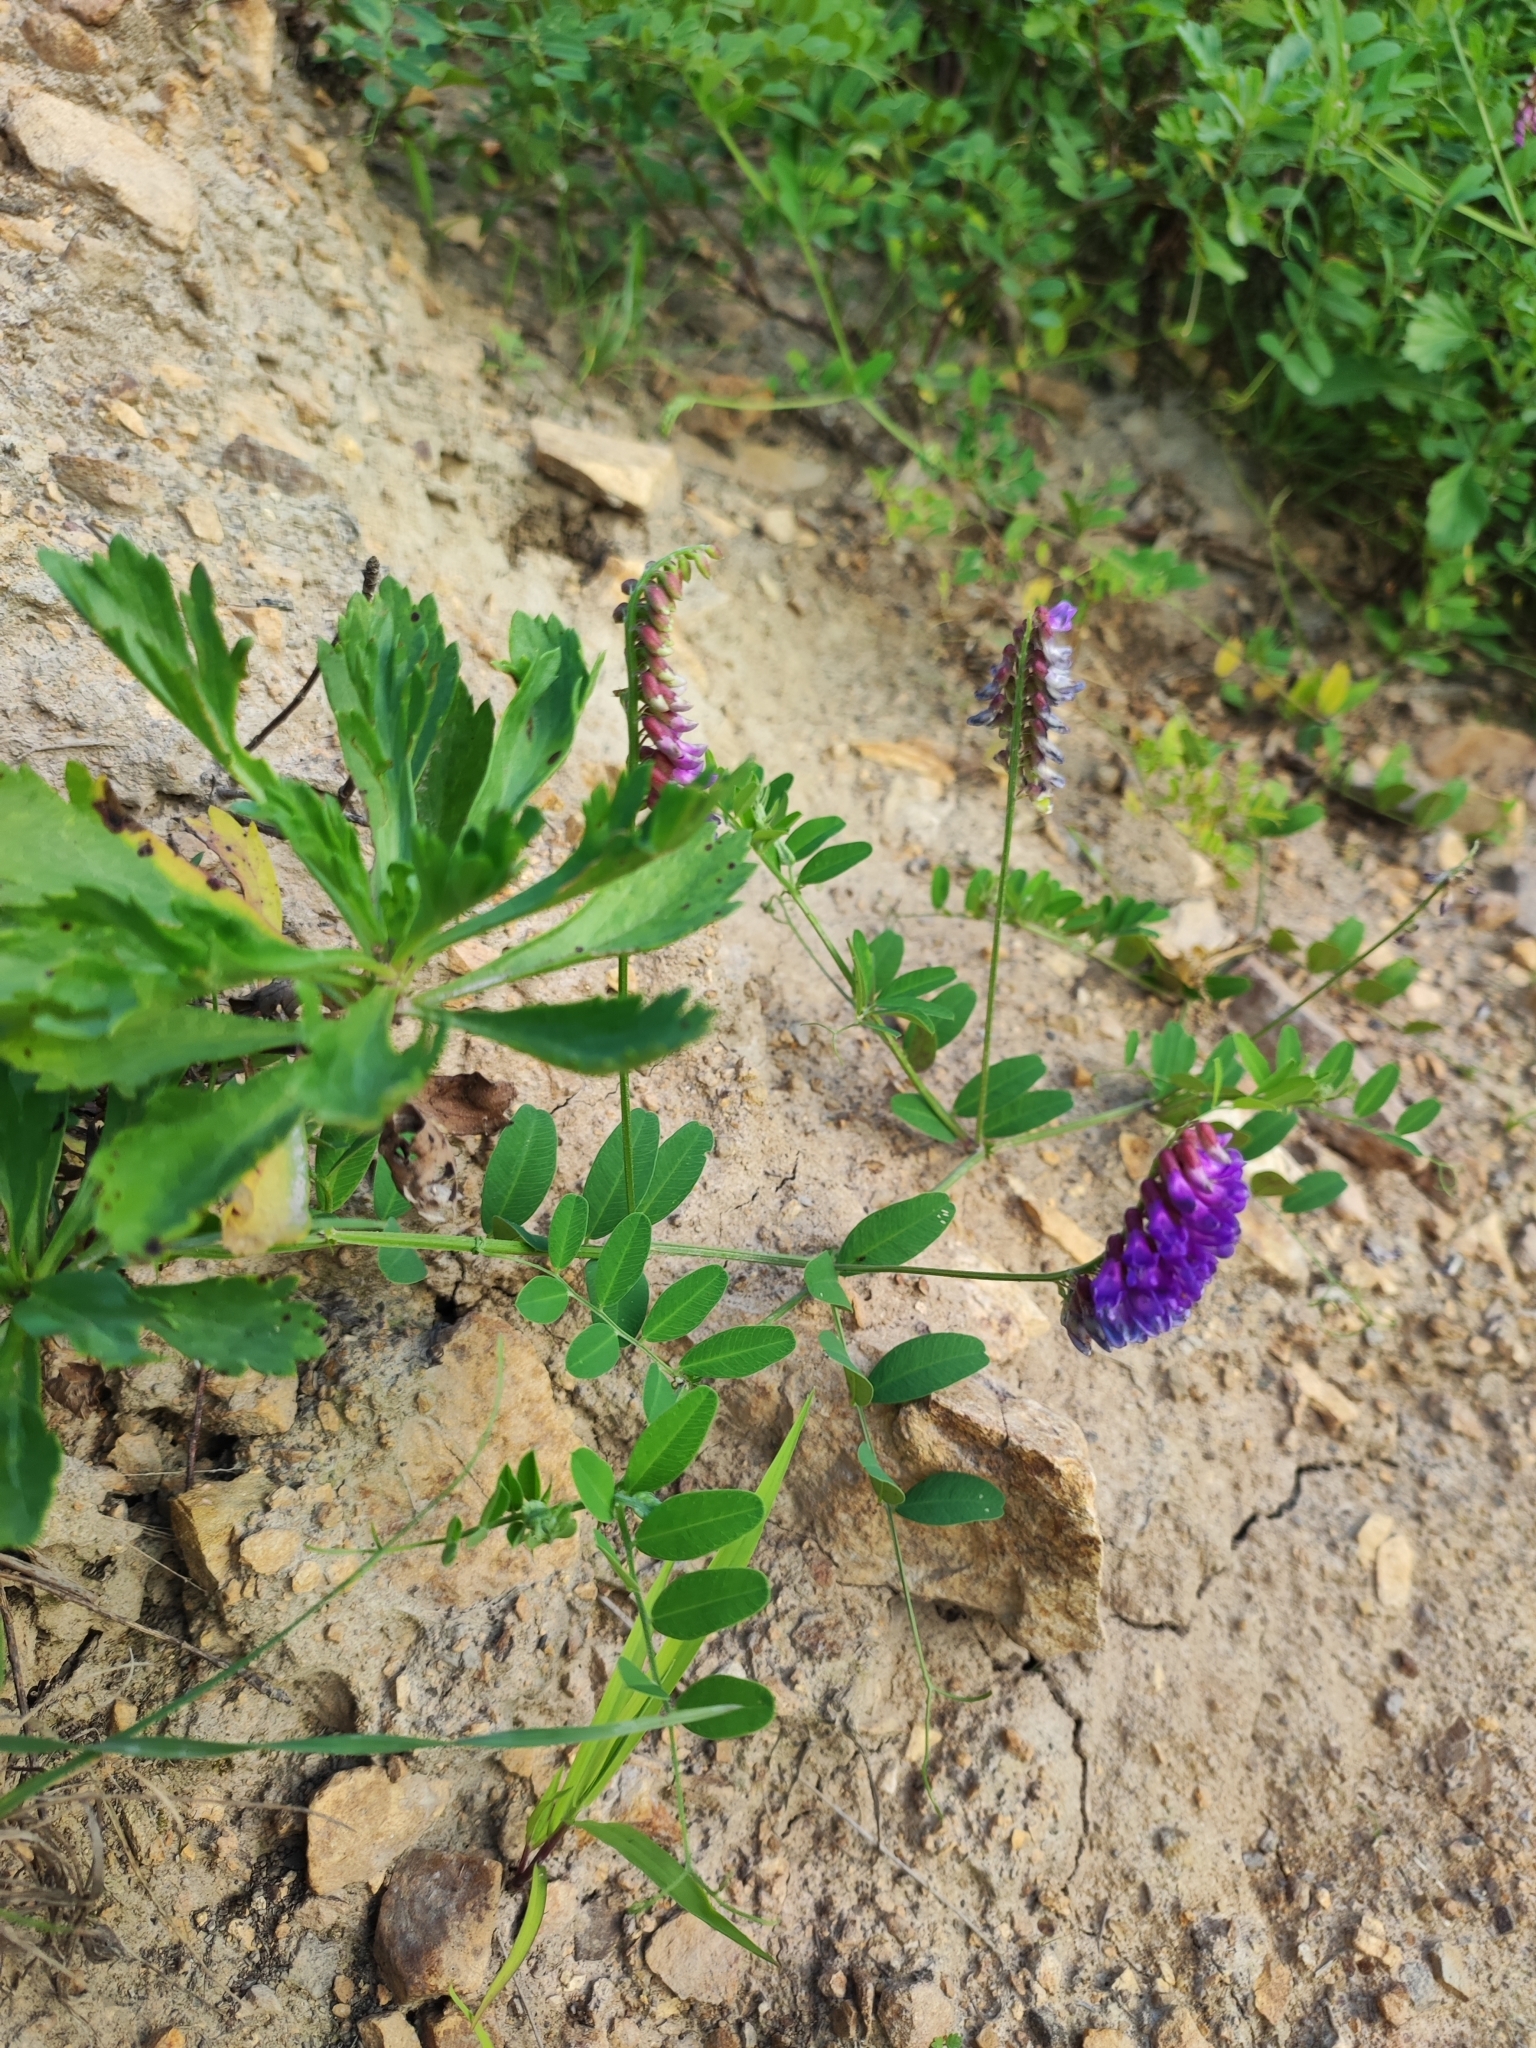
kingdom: Plantae
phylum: Tracheophyta
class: Magnoliopsida
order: Fabales
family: Fabaceae
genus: Vicia
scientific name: Vicia amurensis
